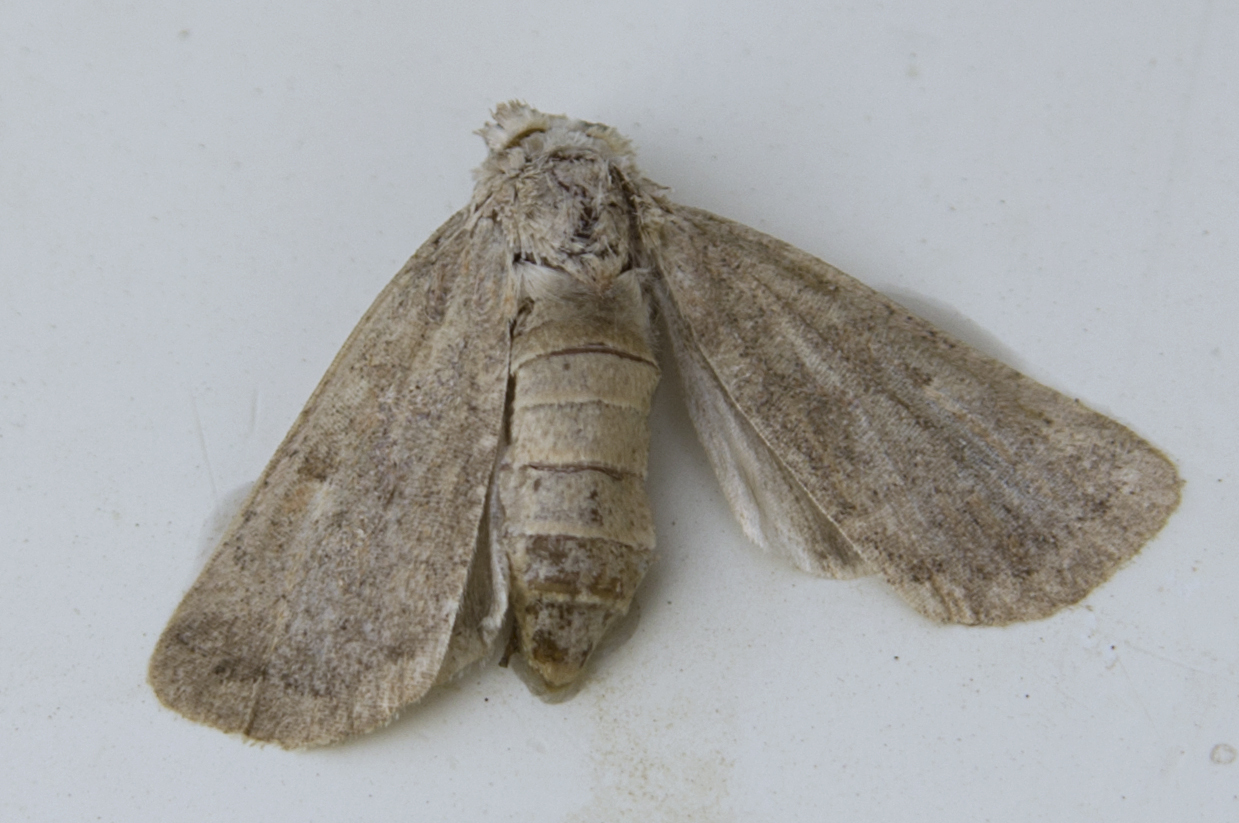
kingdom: Animalia
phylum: Arthropoda
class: Insecta
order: Lepidoptera
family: Noctuidae
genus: Xestia
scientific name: Xestia xanthographa
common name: Square-spot rustic
